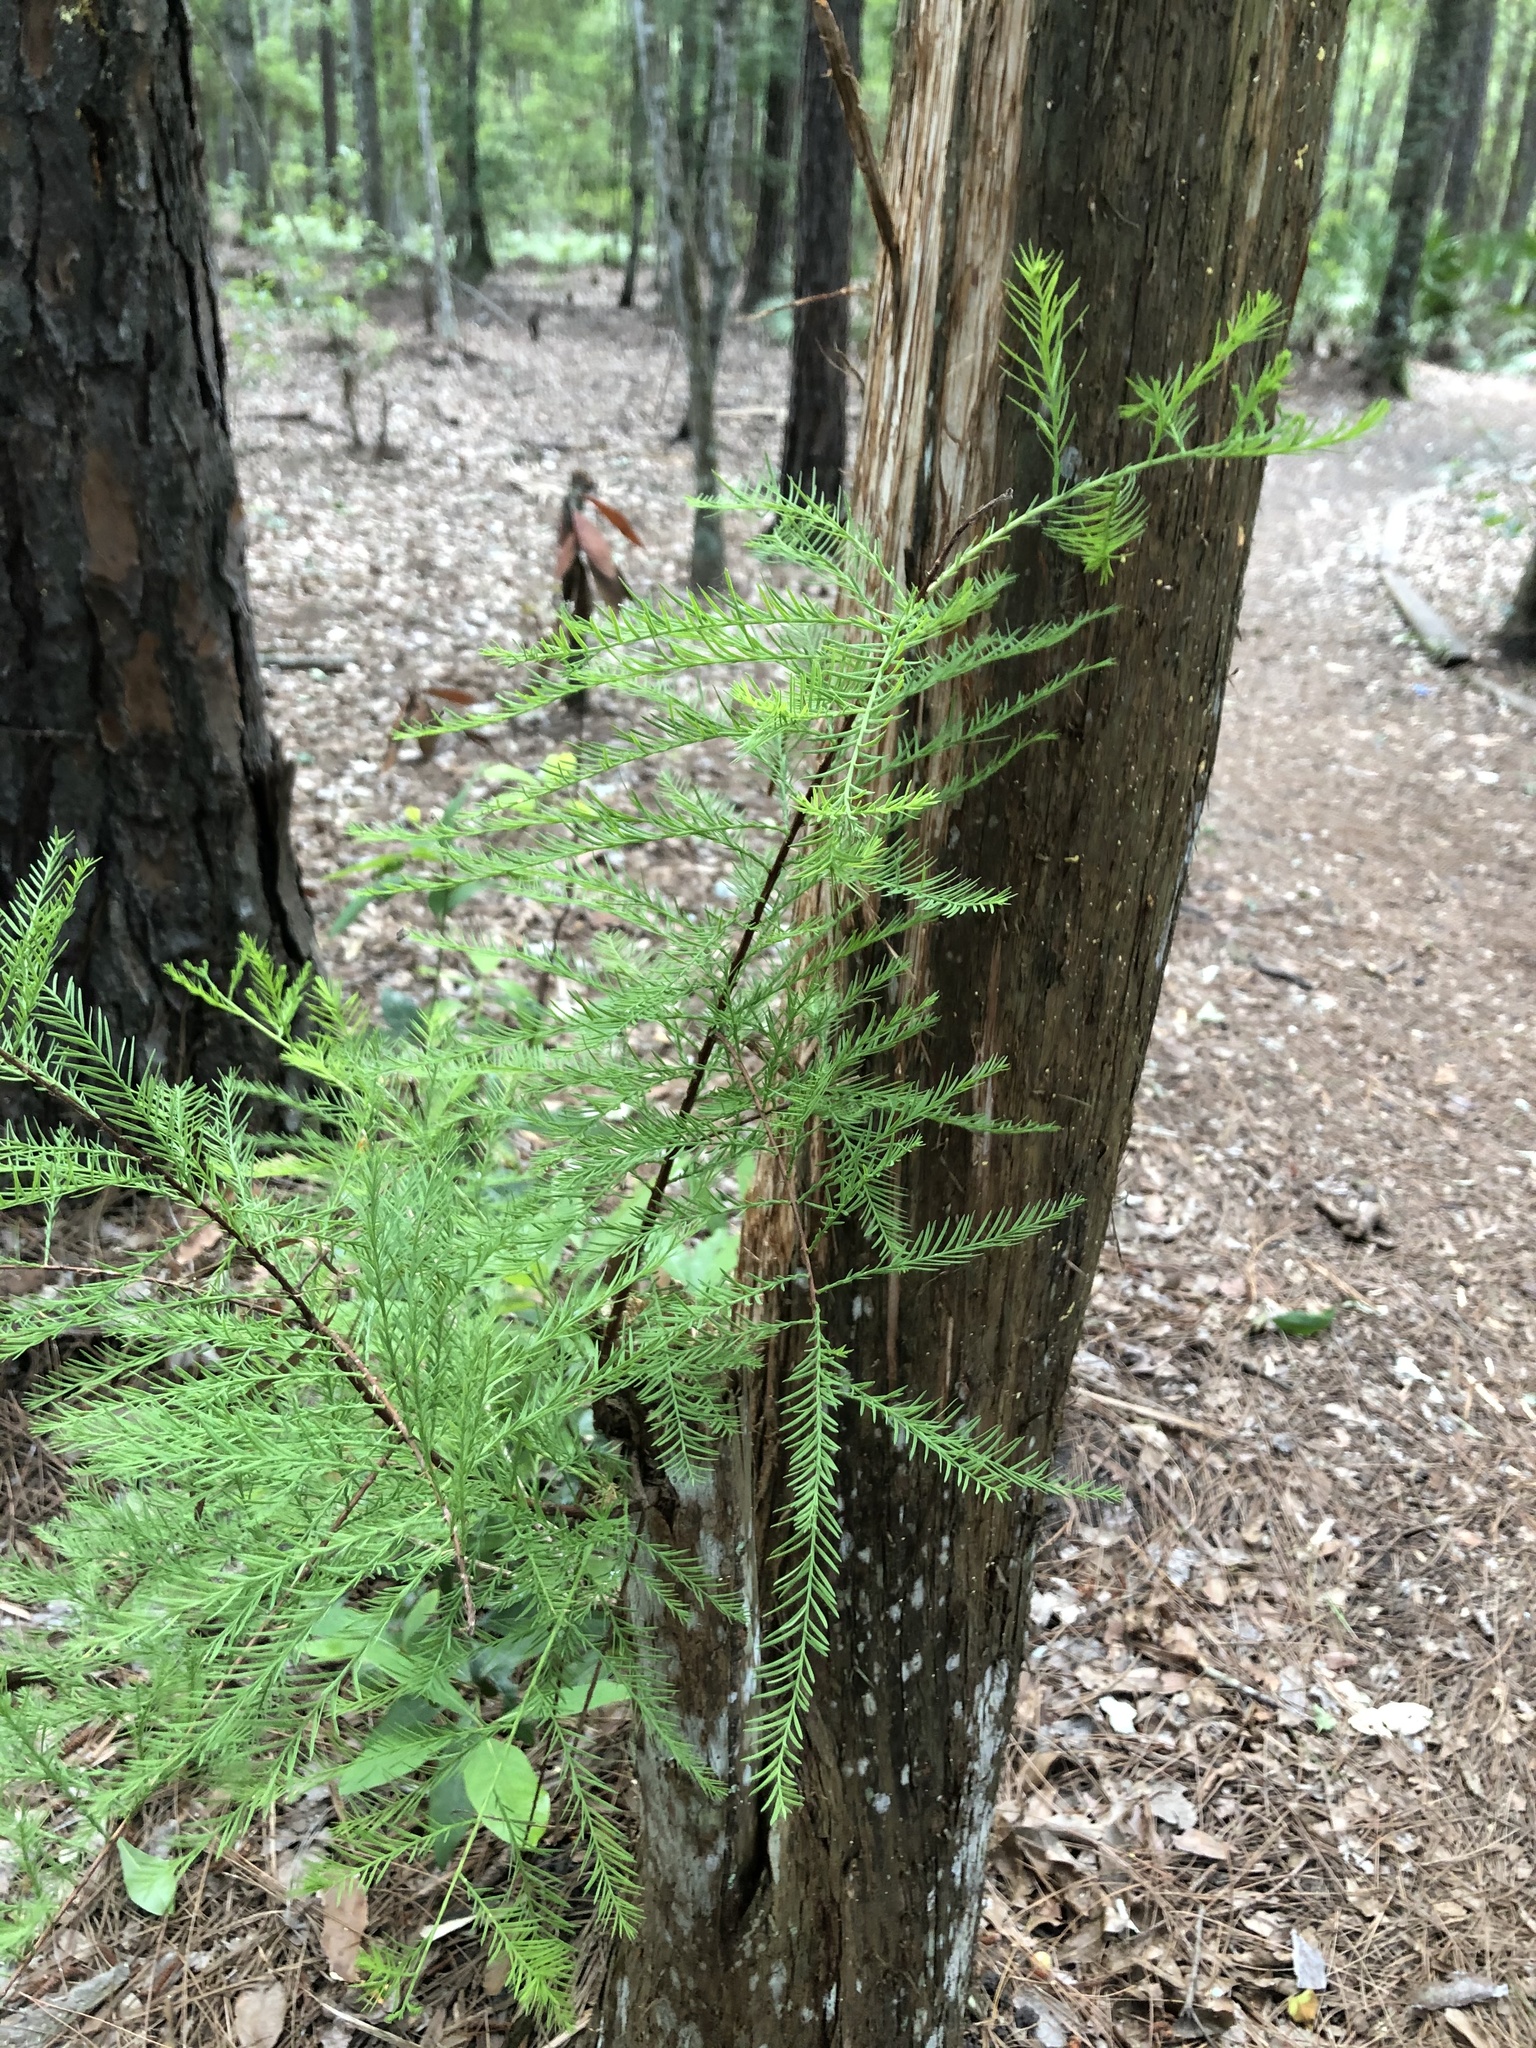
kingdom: Plantae
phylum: Tracheophyta
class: Pinopsida
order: Pinales
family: Cupressaceae
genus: Taxodium
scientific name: Taxodium distichum
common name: Bald cypress
